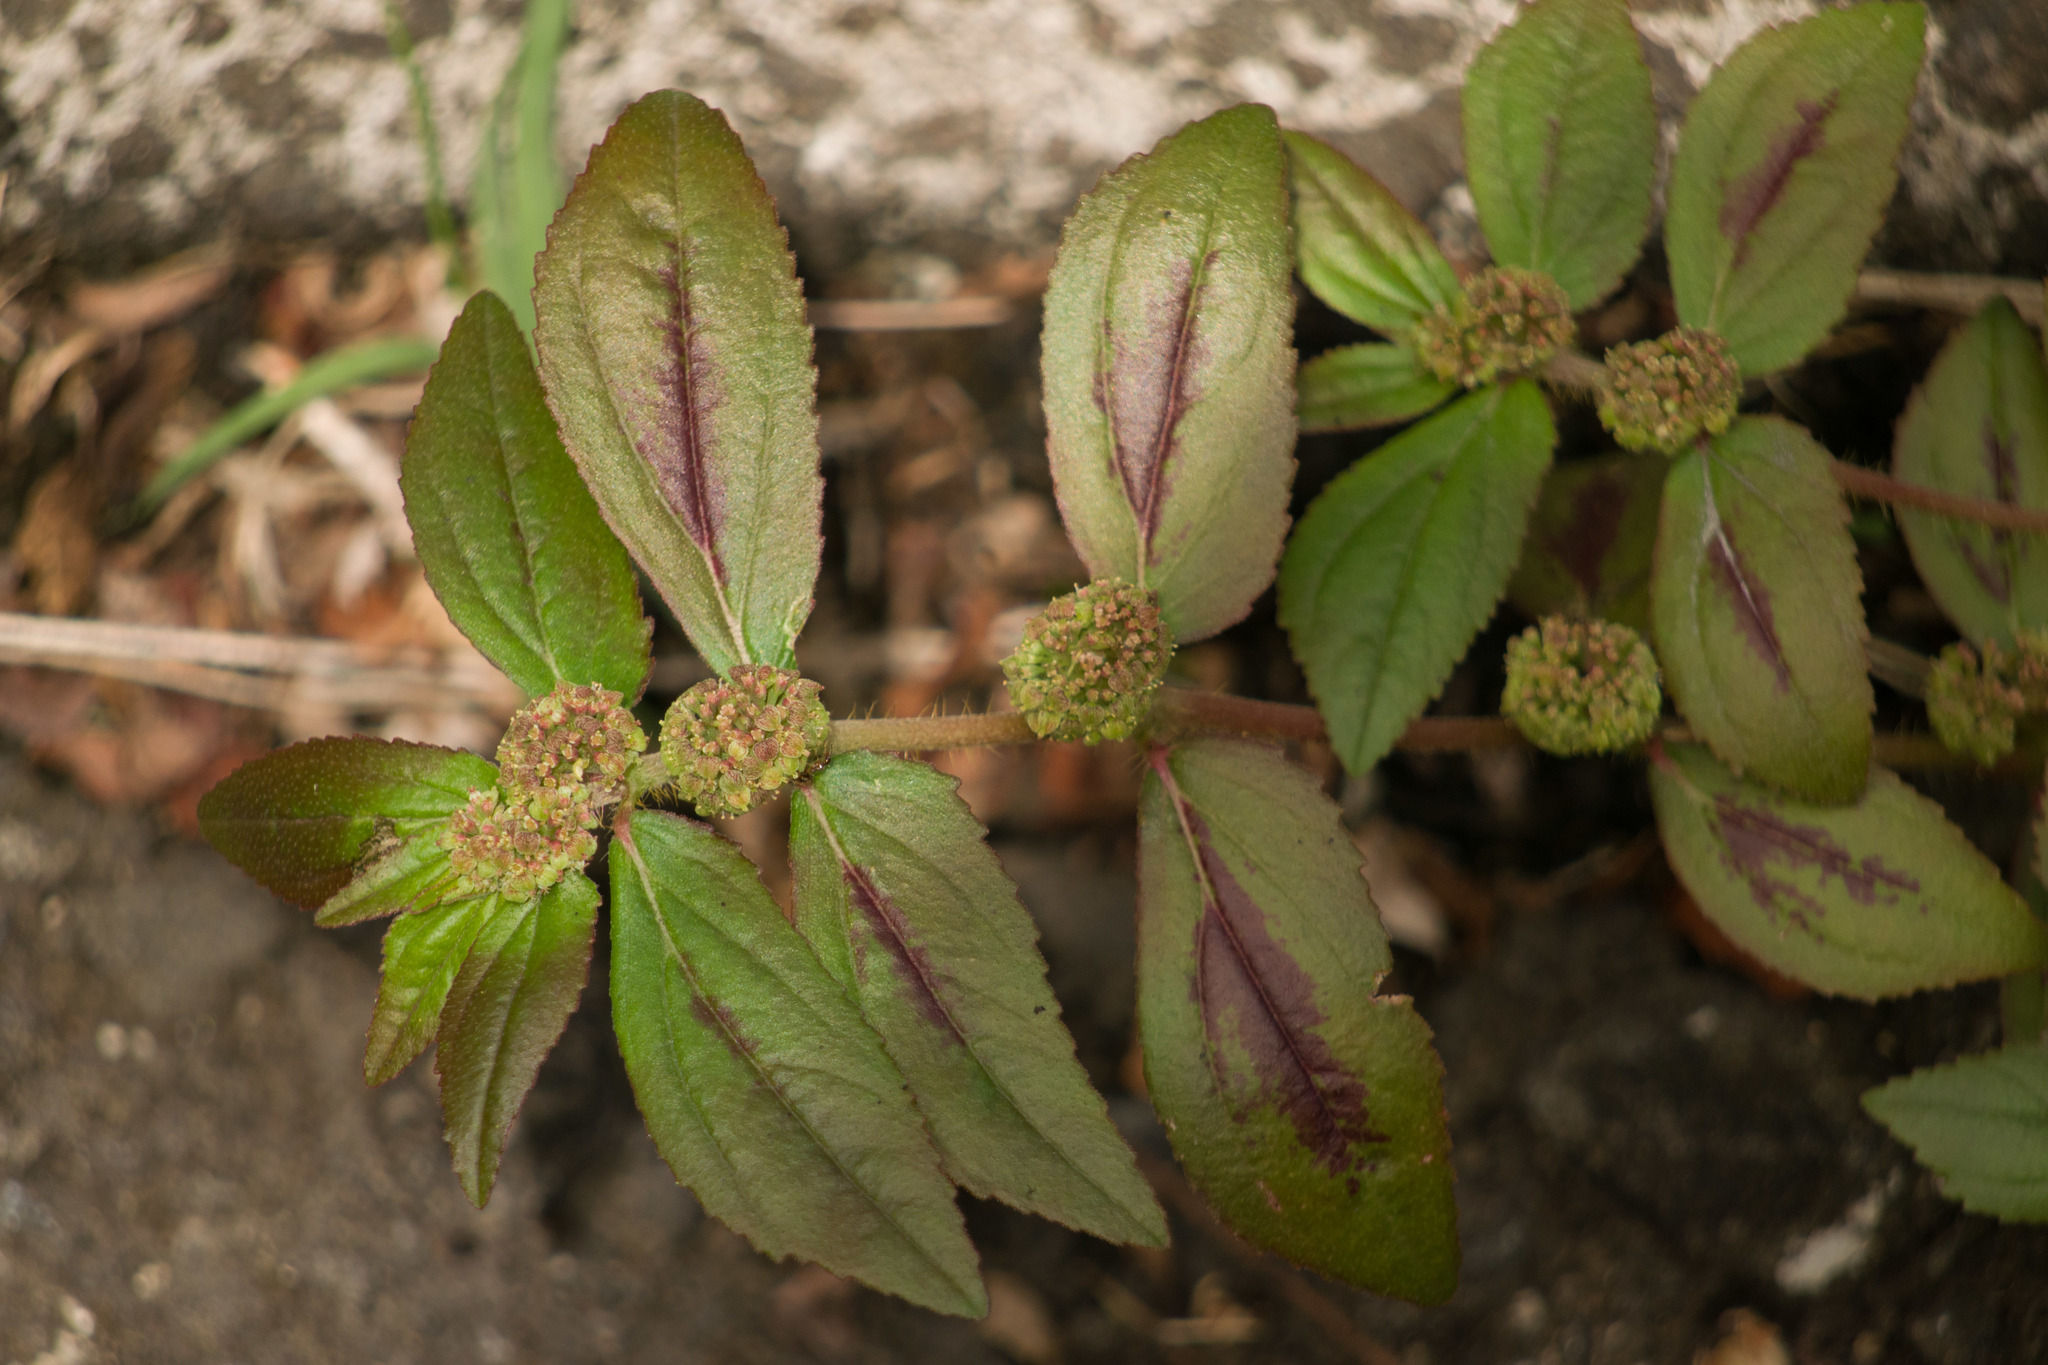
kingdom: Plantae
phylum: Tracheophyta
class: Magnoliopsida
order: Malpighiales
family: Euphorbiaceae
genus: Euphorbia
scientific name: Euphorbia hirta
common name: Pillpod sandmat
